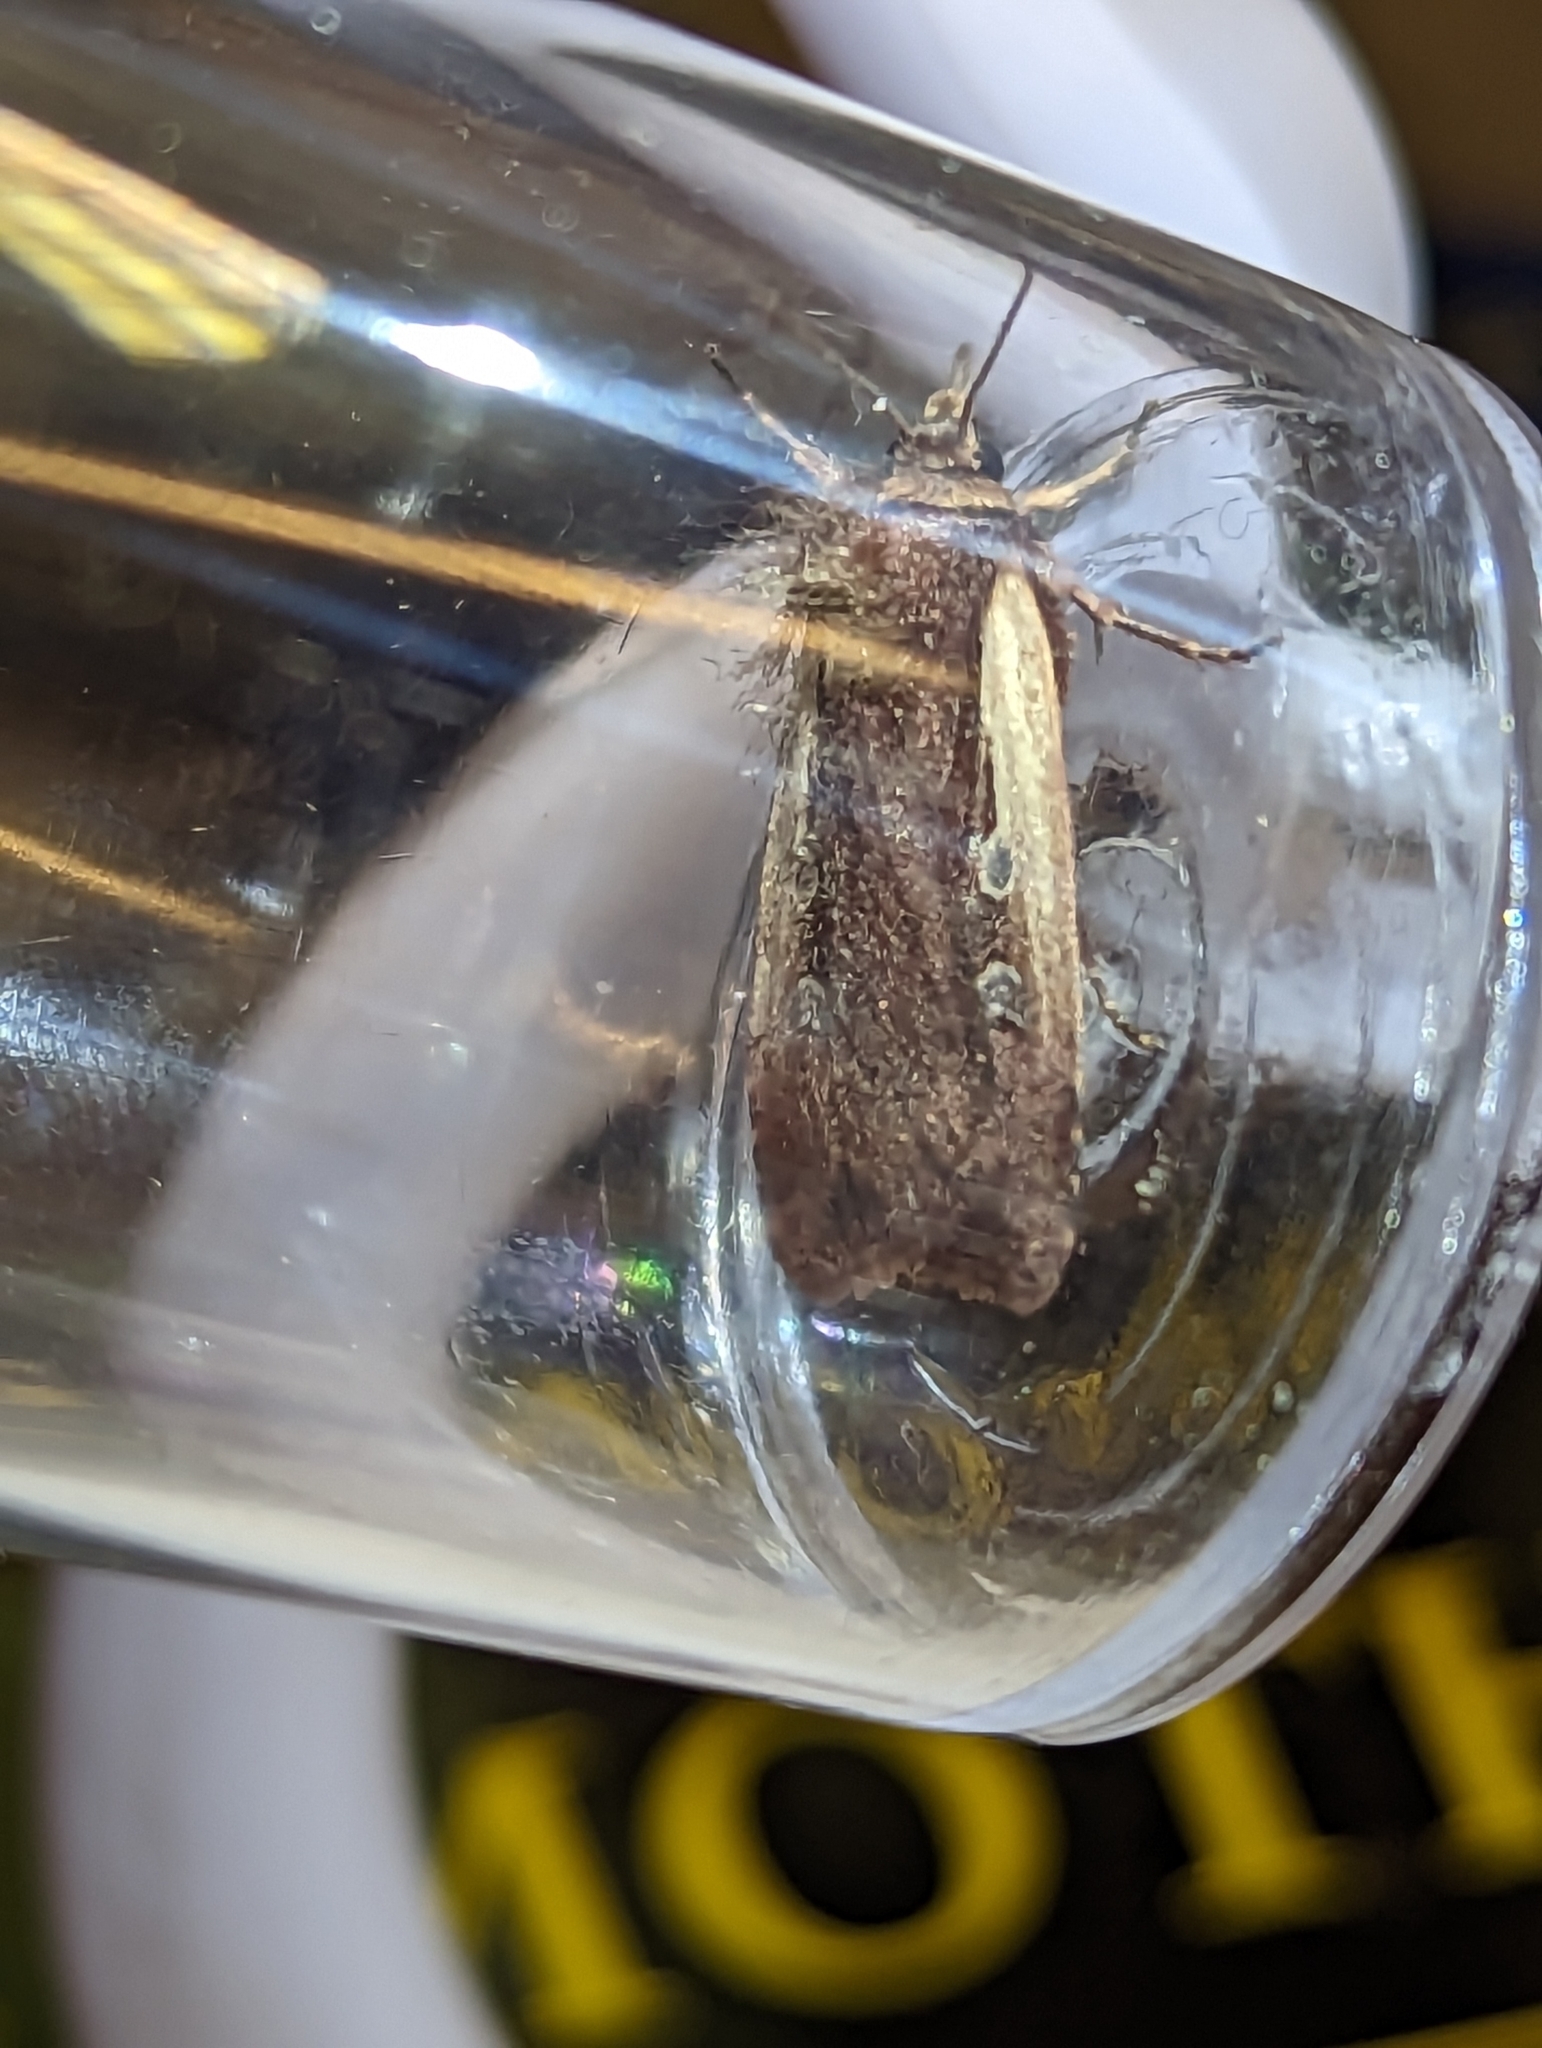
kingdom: Animalia
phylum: Arthropoda
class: Insecta
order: Lepidoptera
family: Noctuidae
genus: Ochropleura
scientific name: Ochropleura plecta
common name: Flame shoulder
